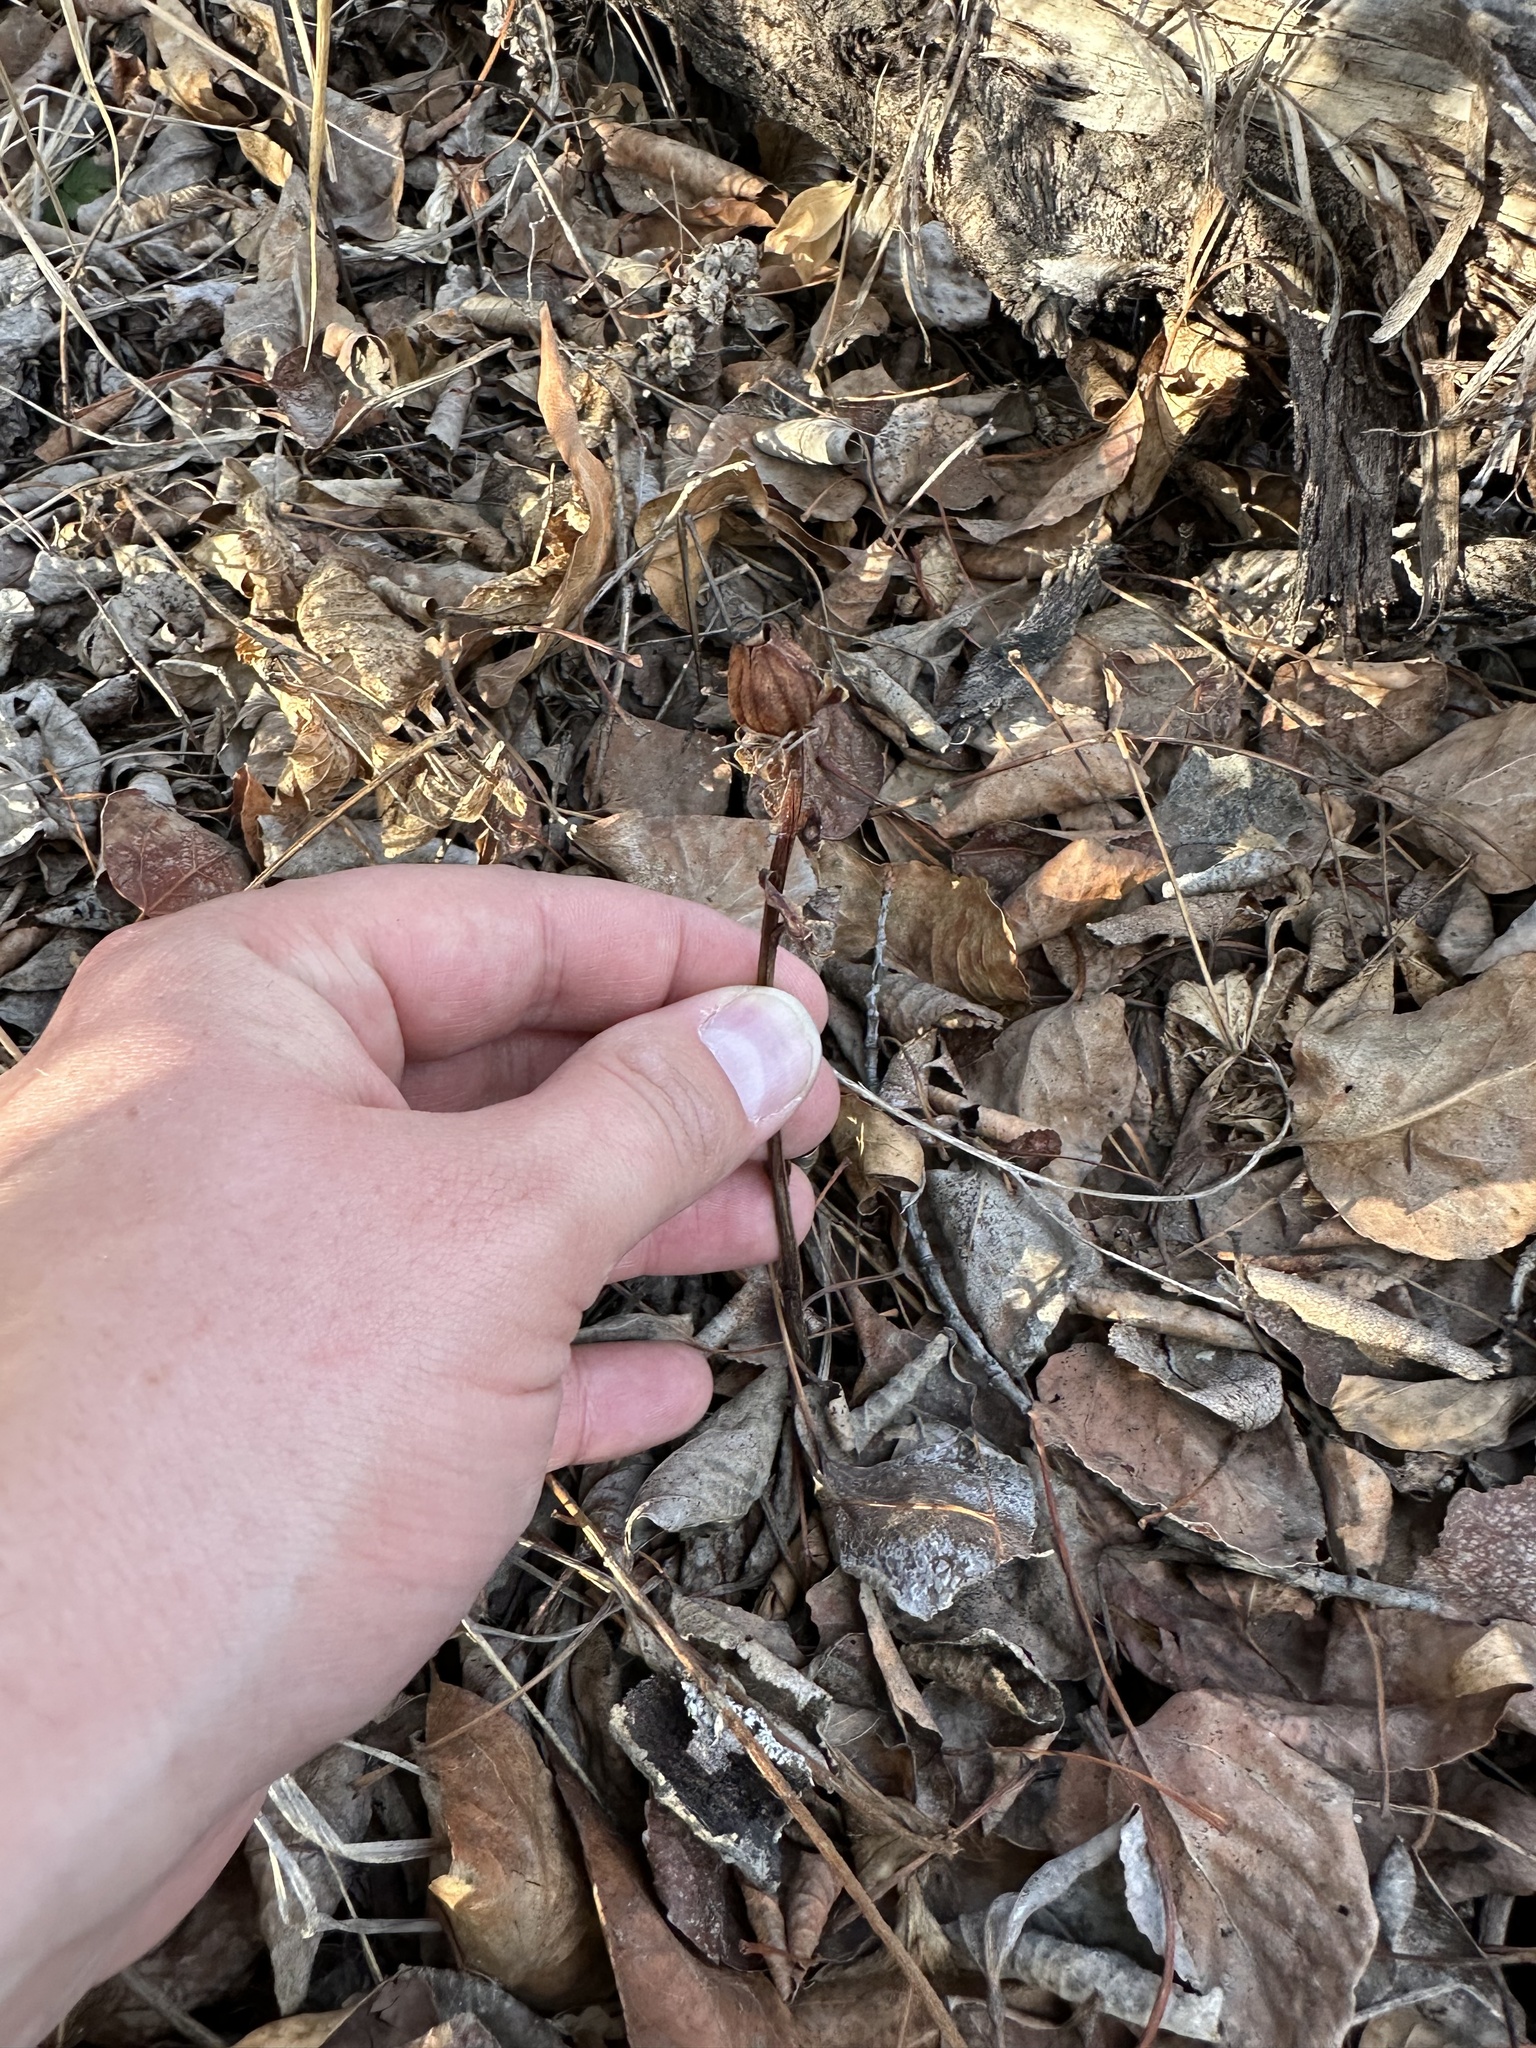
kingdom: Plantae
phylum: Tracheophyta
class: Magnoliopsida
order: Ericales
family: Ericaceae
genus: Monotropa
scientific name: Monotropa uniflora
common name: Convulsion root
